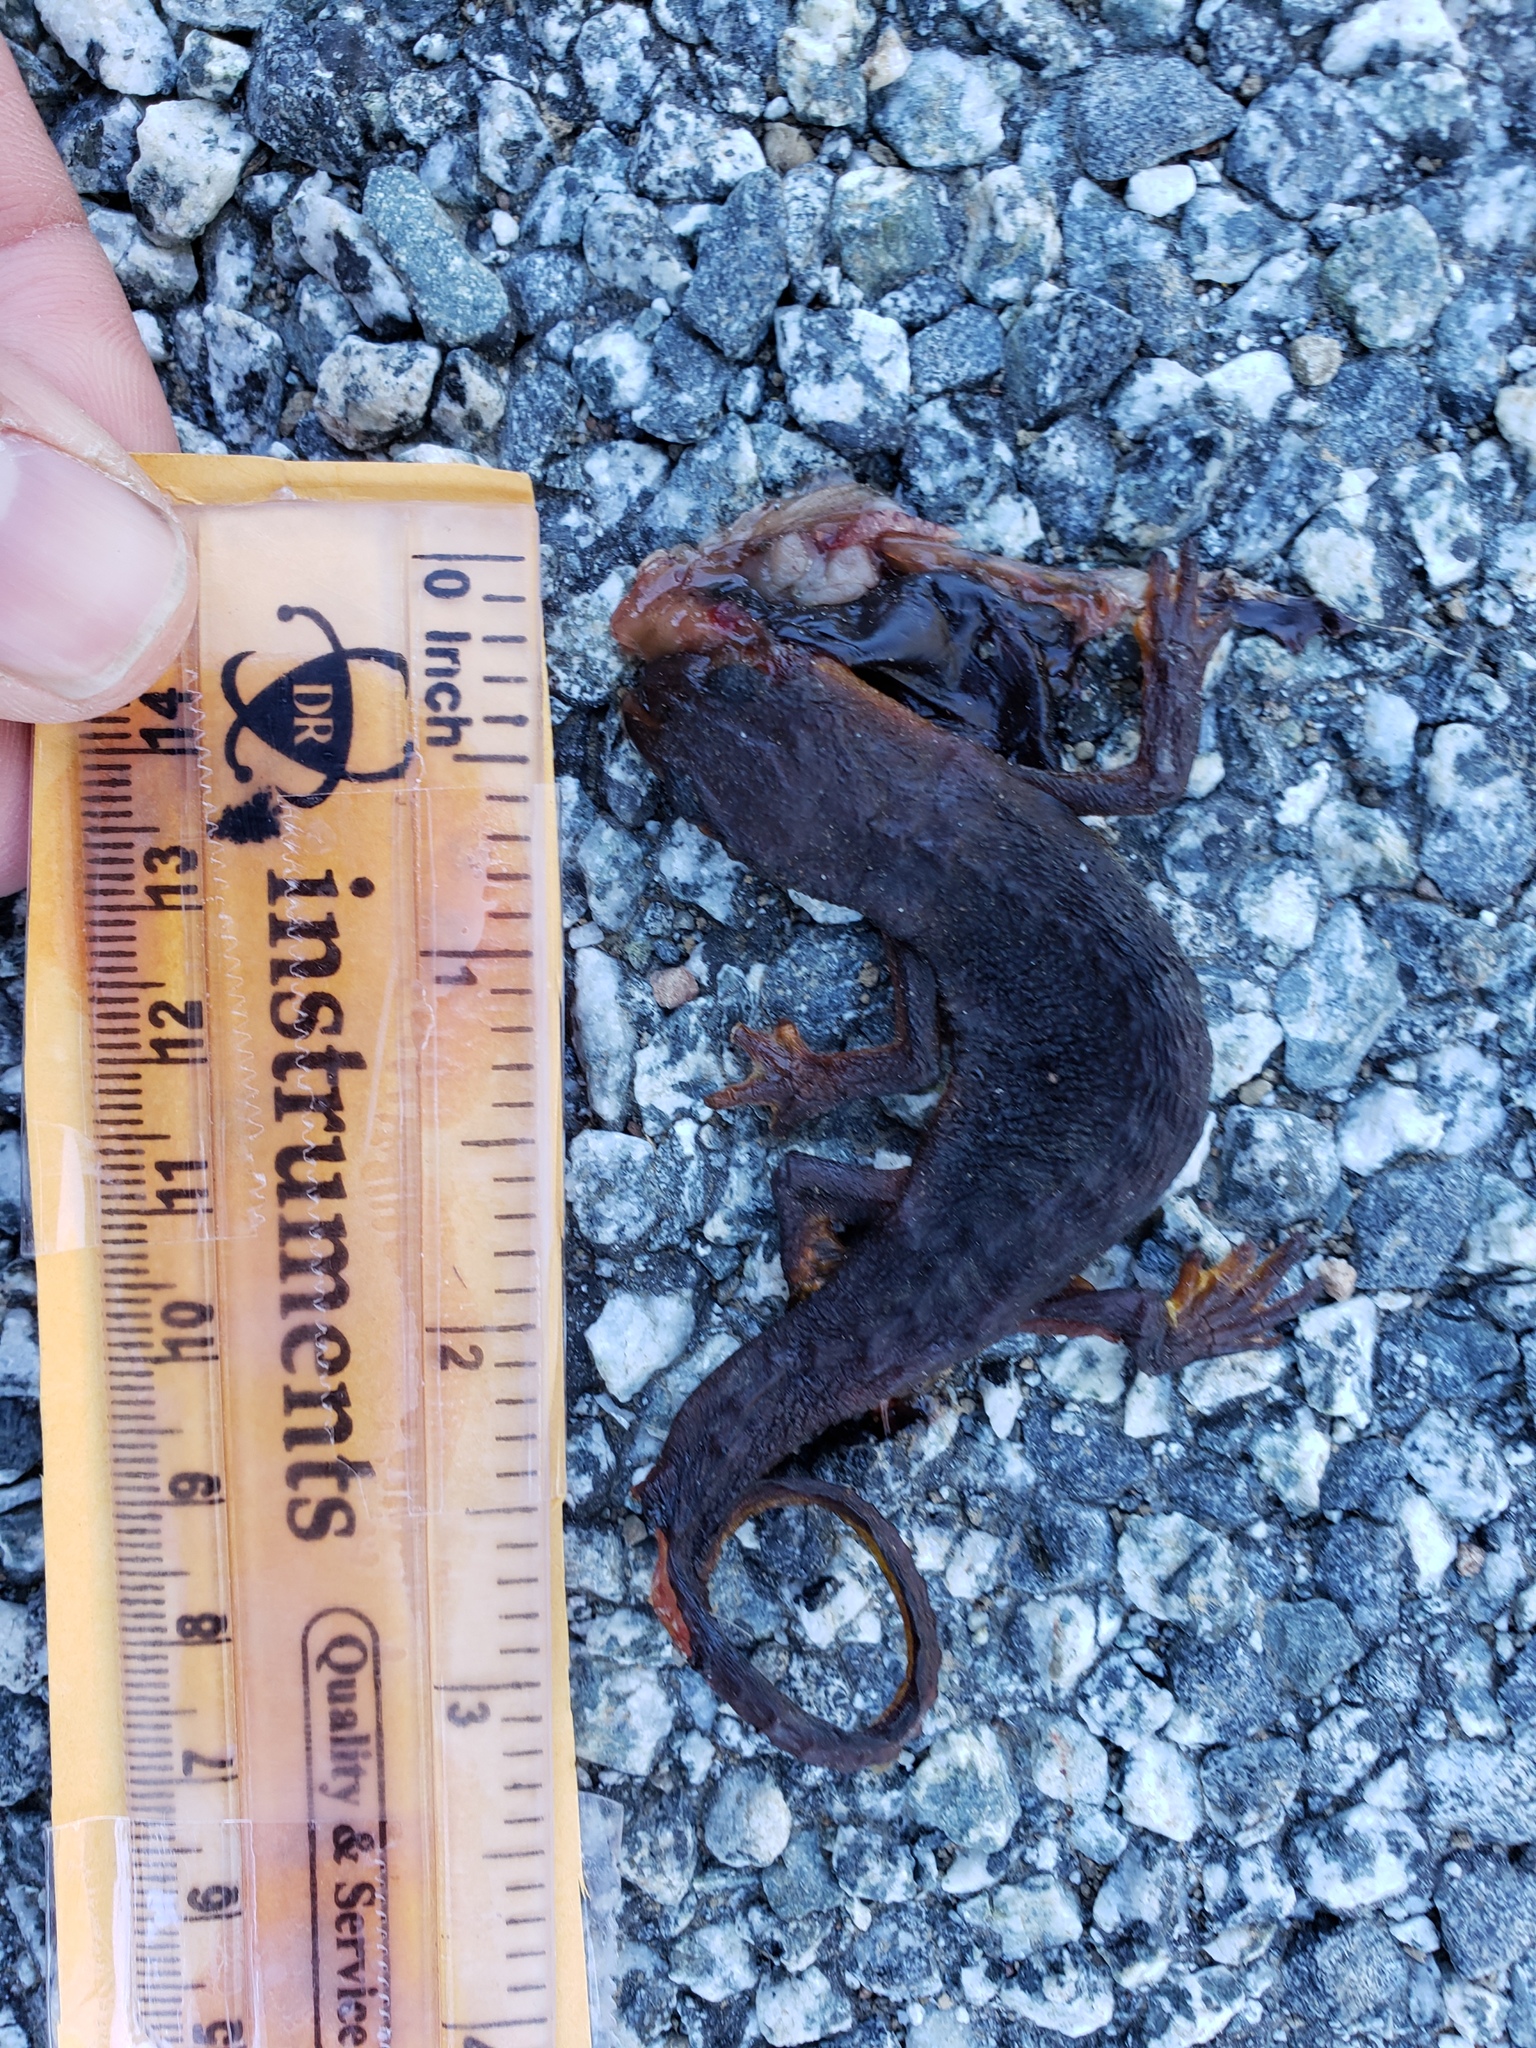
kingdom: Animalia
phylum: Chordata
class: Amphibia
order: Caudata
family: Salamandridae
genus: Taricha
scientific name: Taricha
